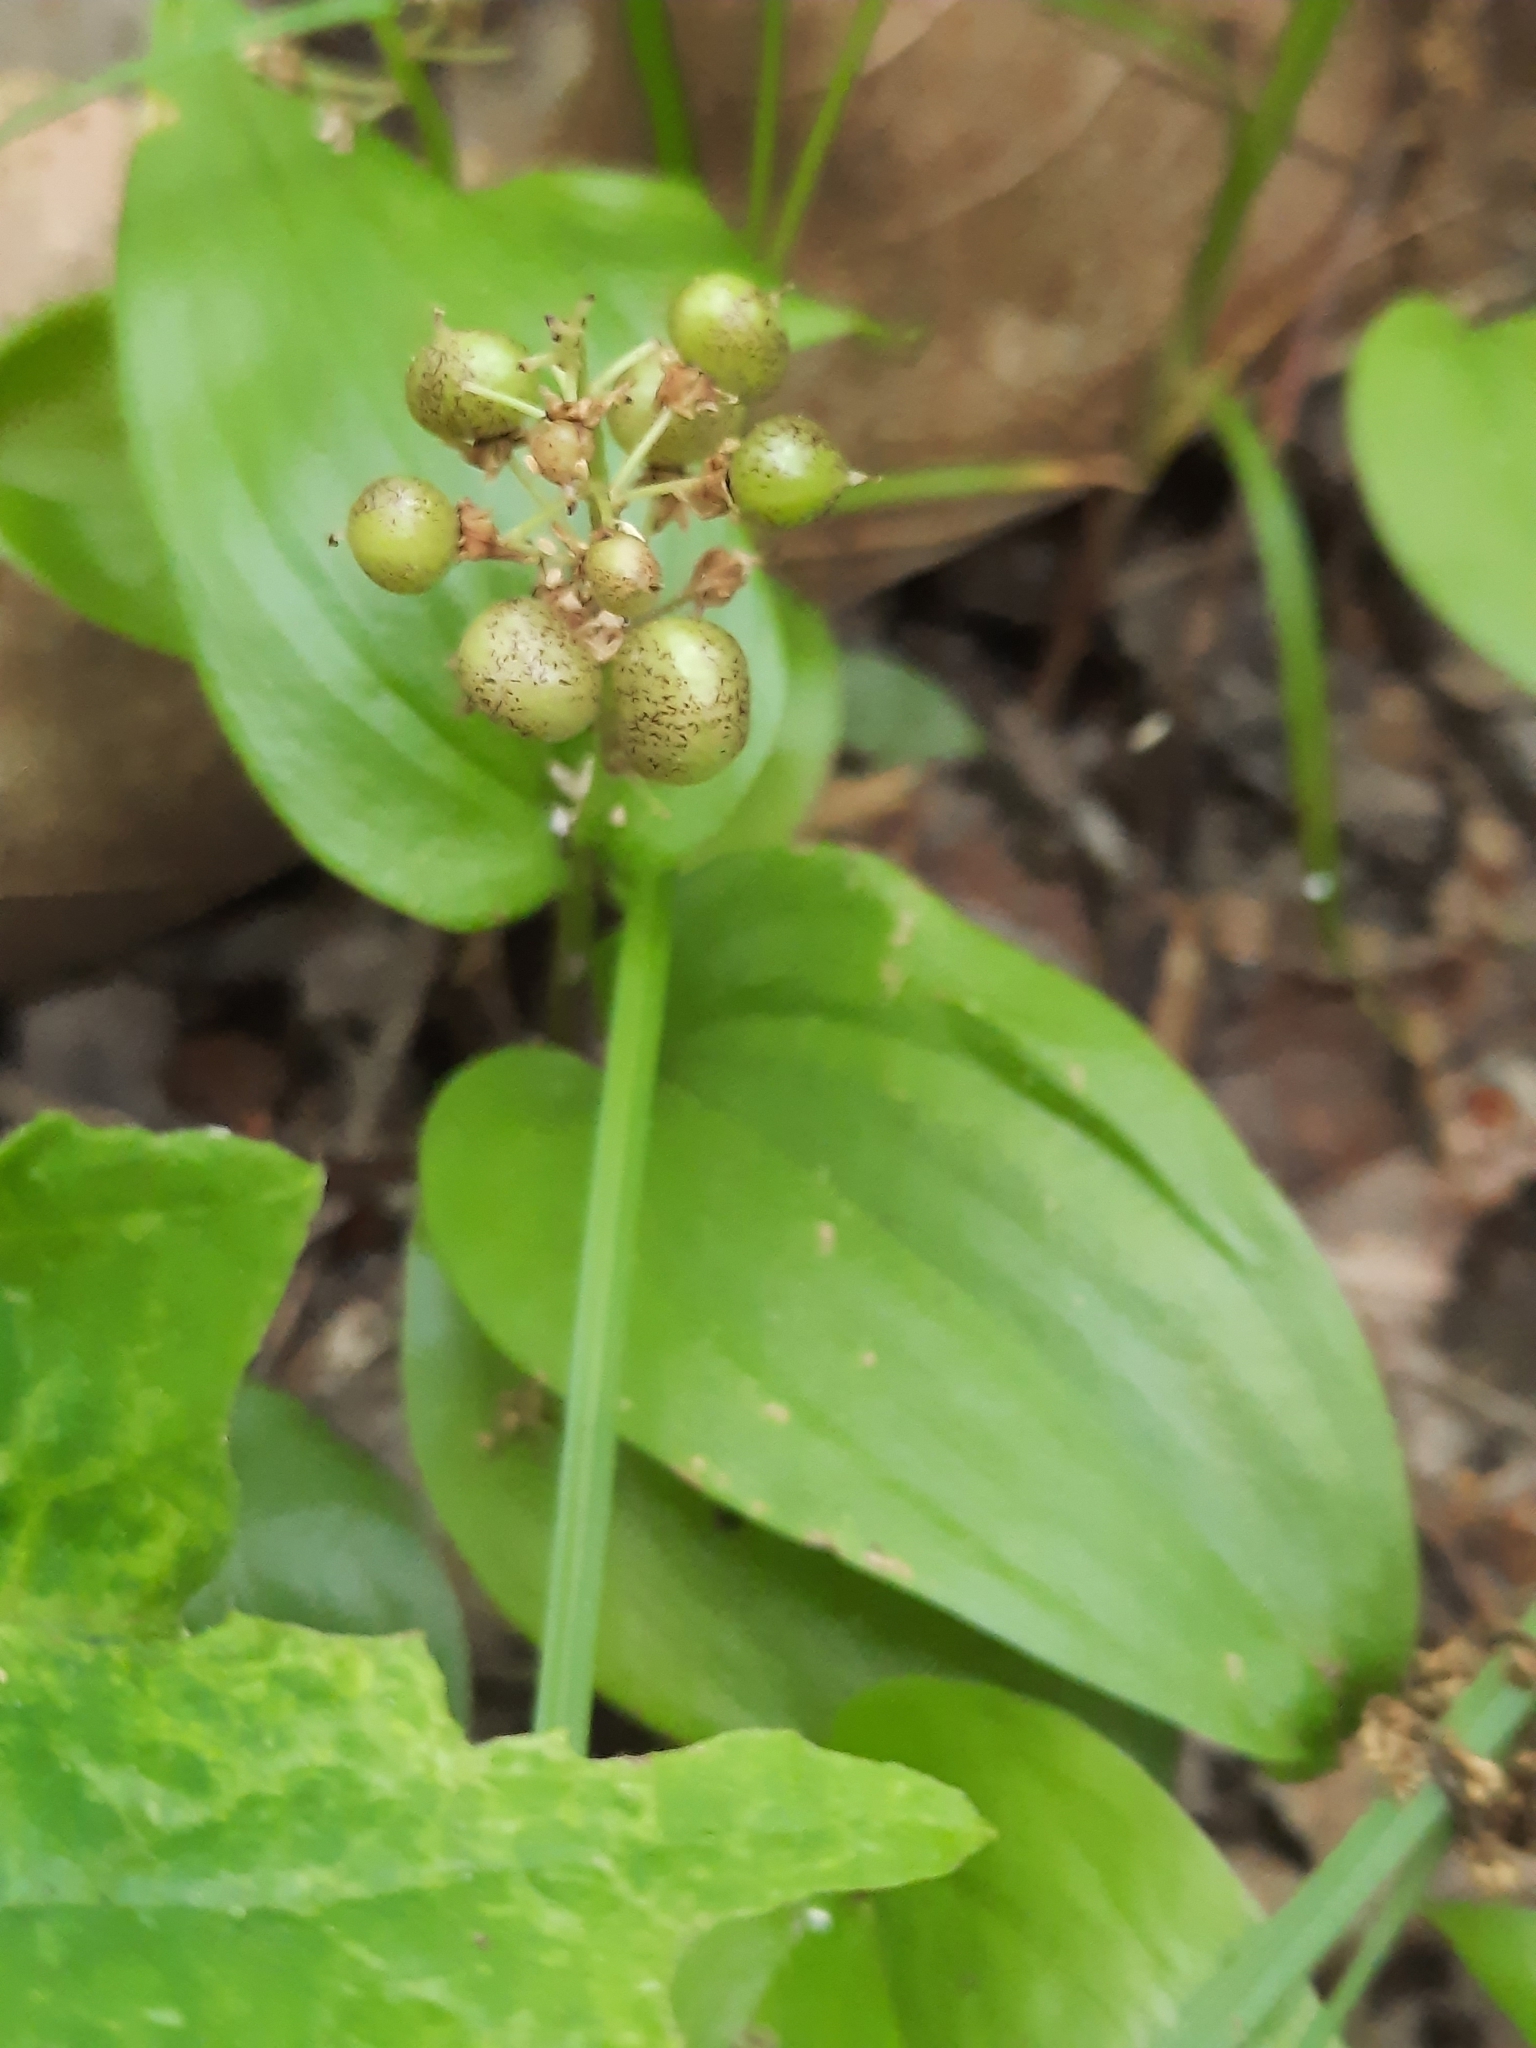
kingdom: Plantae
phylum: Tracheophyta
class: Liliopsida
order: Asparagales
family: Asparagaceae
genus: Maianthemum
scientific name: Maianthemum canadense
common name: False lily-of-the-valley
